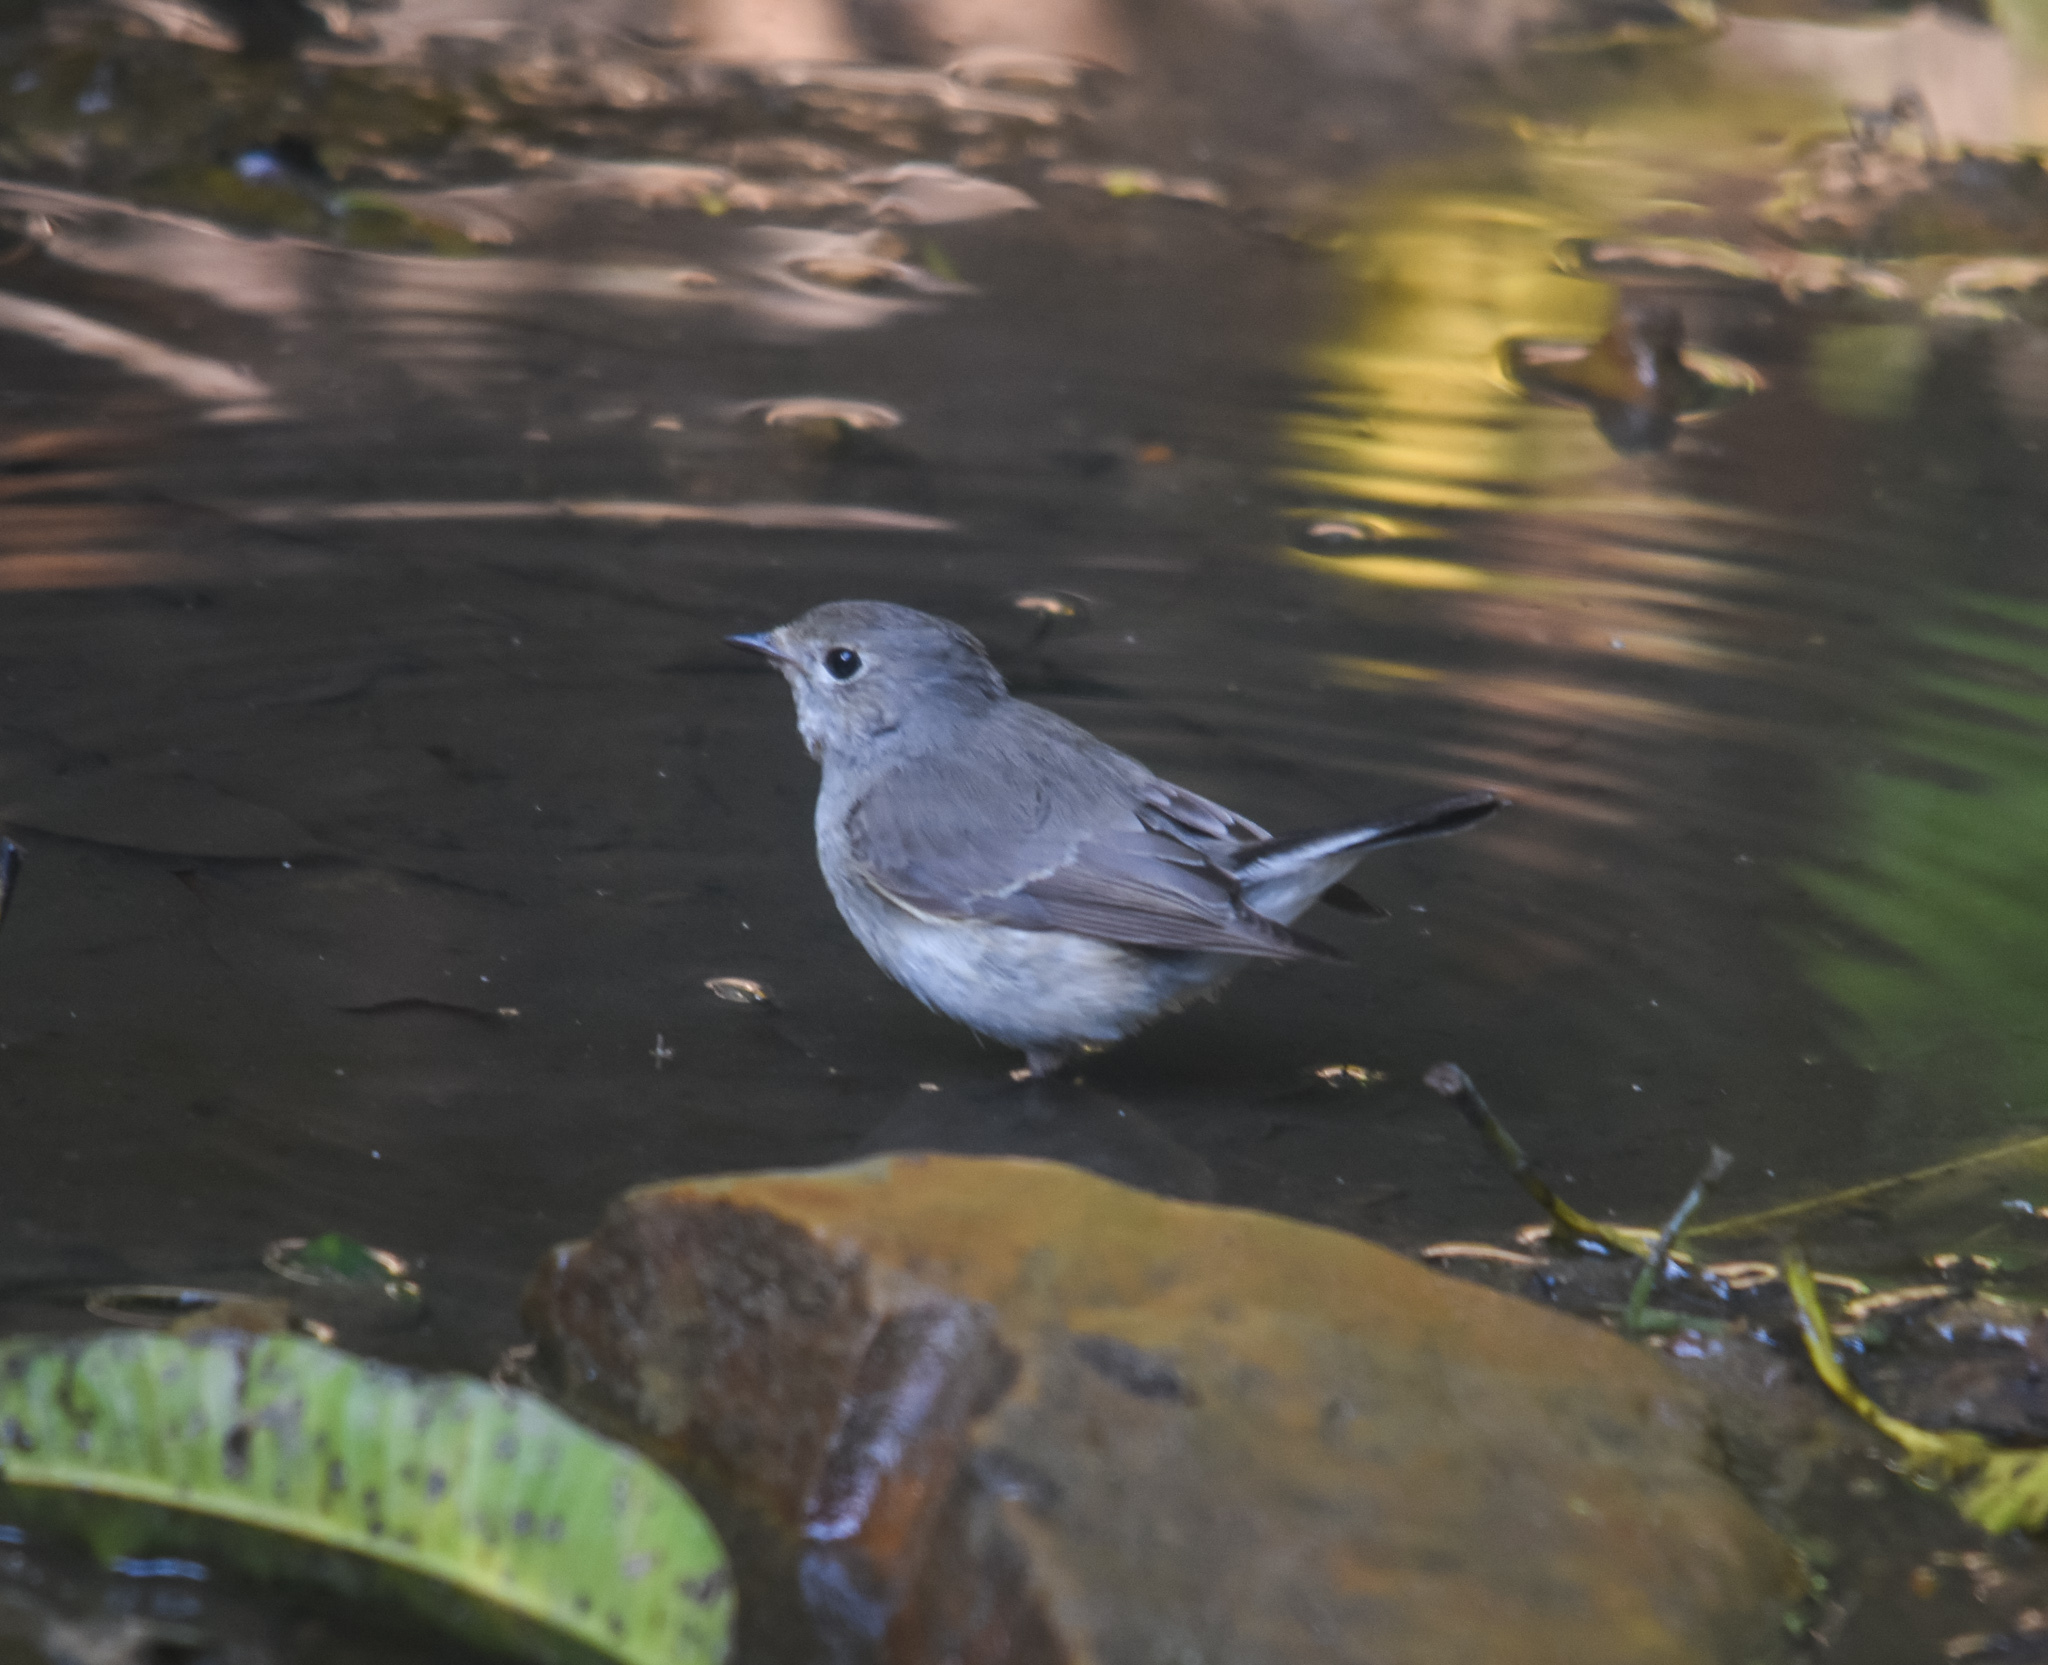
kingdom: Animalia
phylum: Chordata
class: Aves
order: Passeriformes
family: Muscicapidae
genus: Ficedula
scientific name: Ficedula albicilla
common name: Taiga flycatcher
